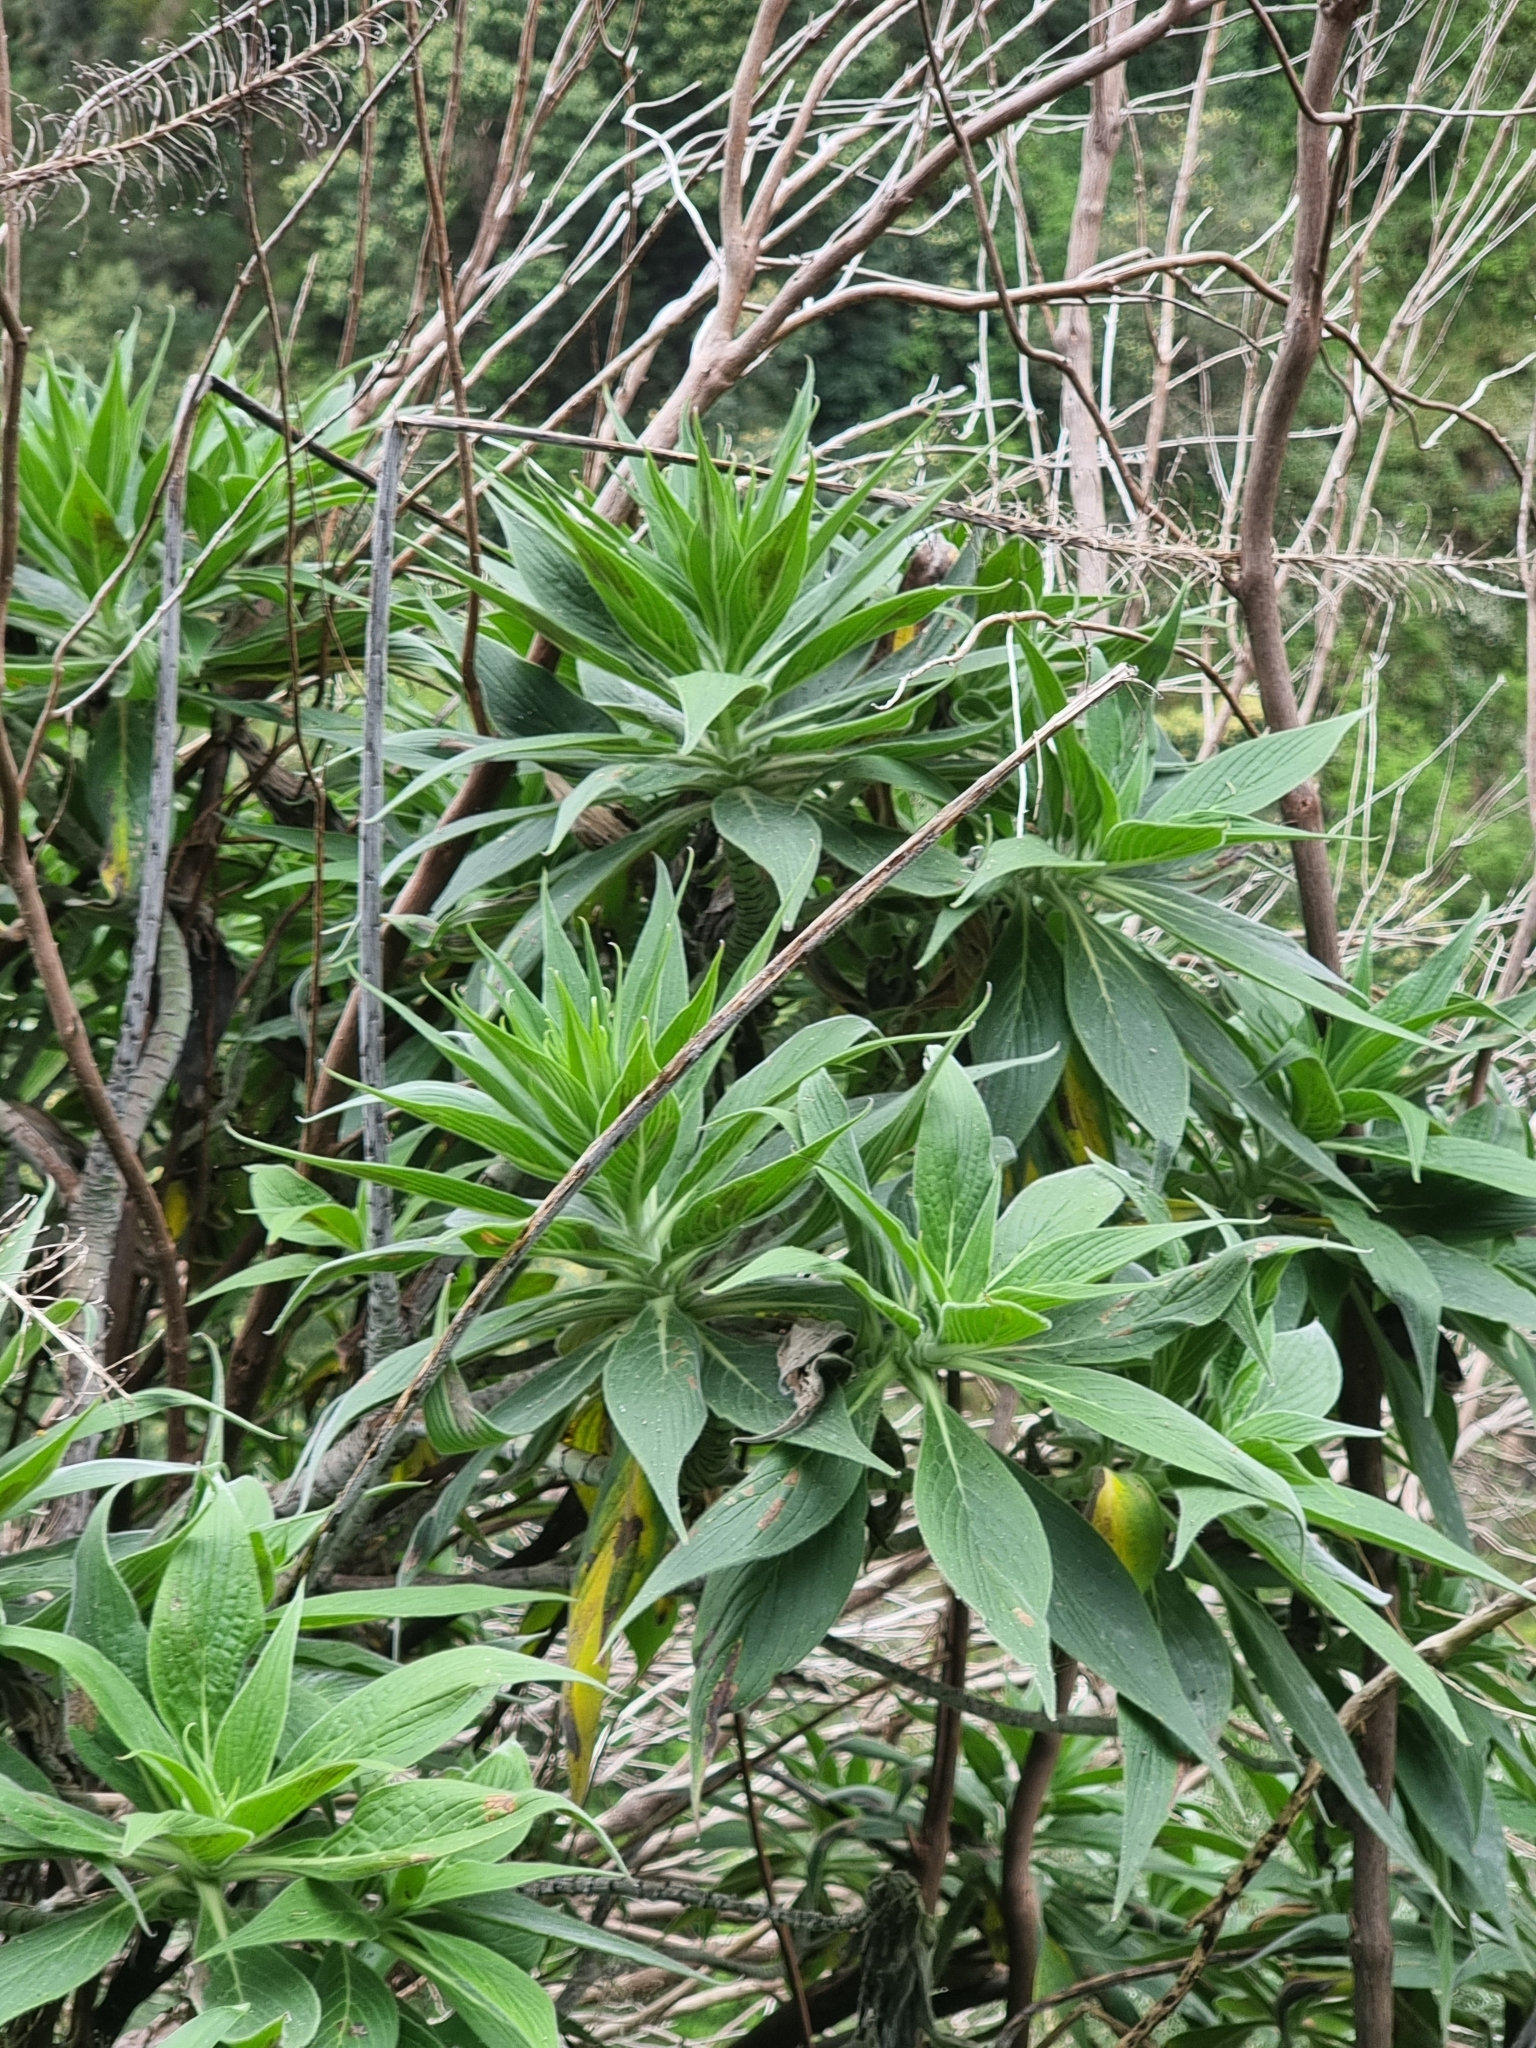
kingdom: Plantae
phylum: Tracheophyta
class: Magnoliopsida
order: Boraginales
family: Boraginaceae
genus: Echium
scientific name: Echium candicans
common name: Pride of madeira
